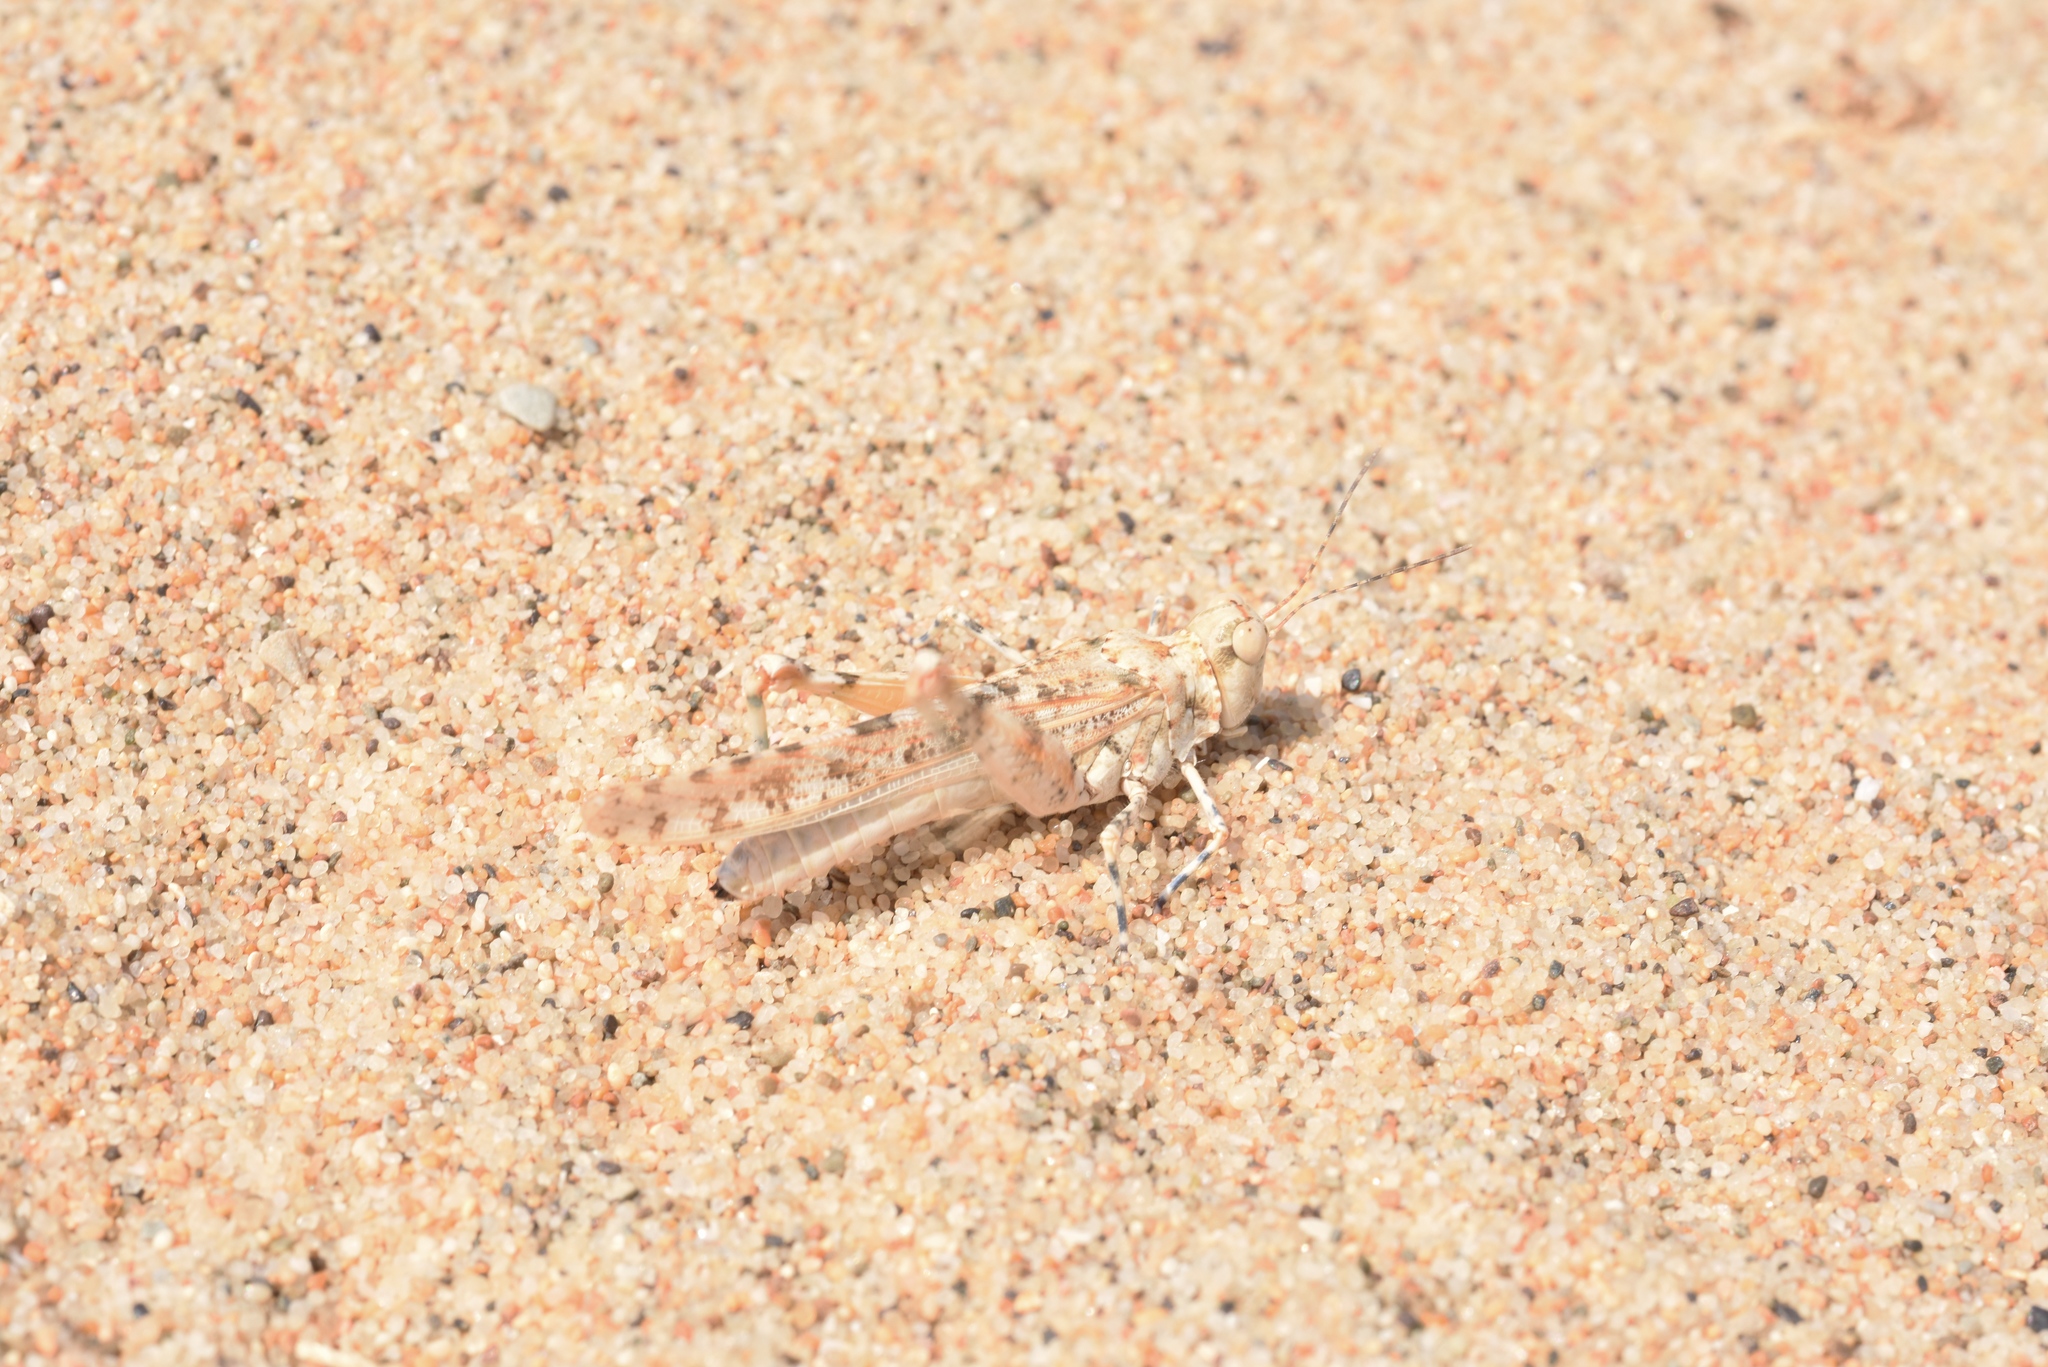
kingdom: Animalia
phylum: Arthropoda
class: Insecta
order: Orthoptera
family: Acrididae
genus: Sphingonotus
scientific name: Sphingonotus candidus
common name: Whitish sand grasshopper
